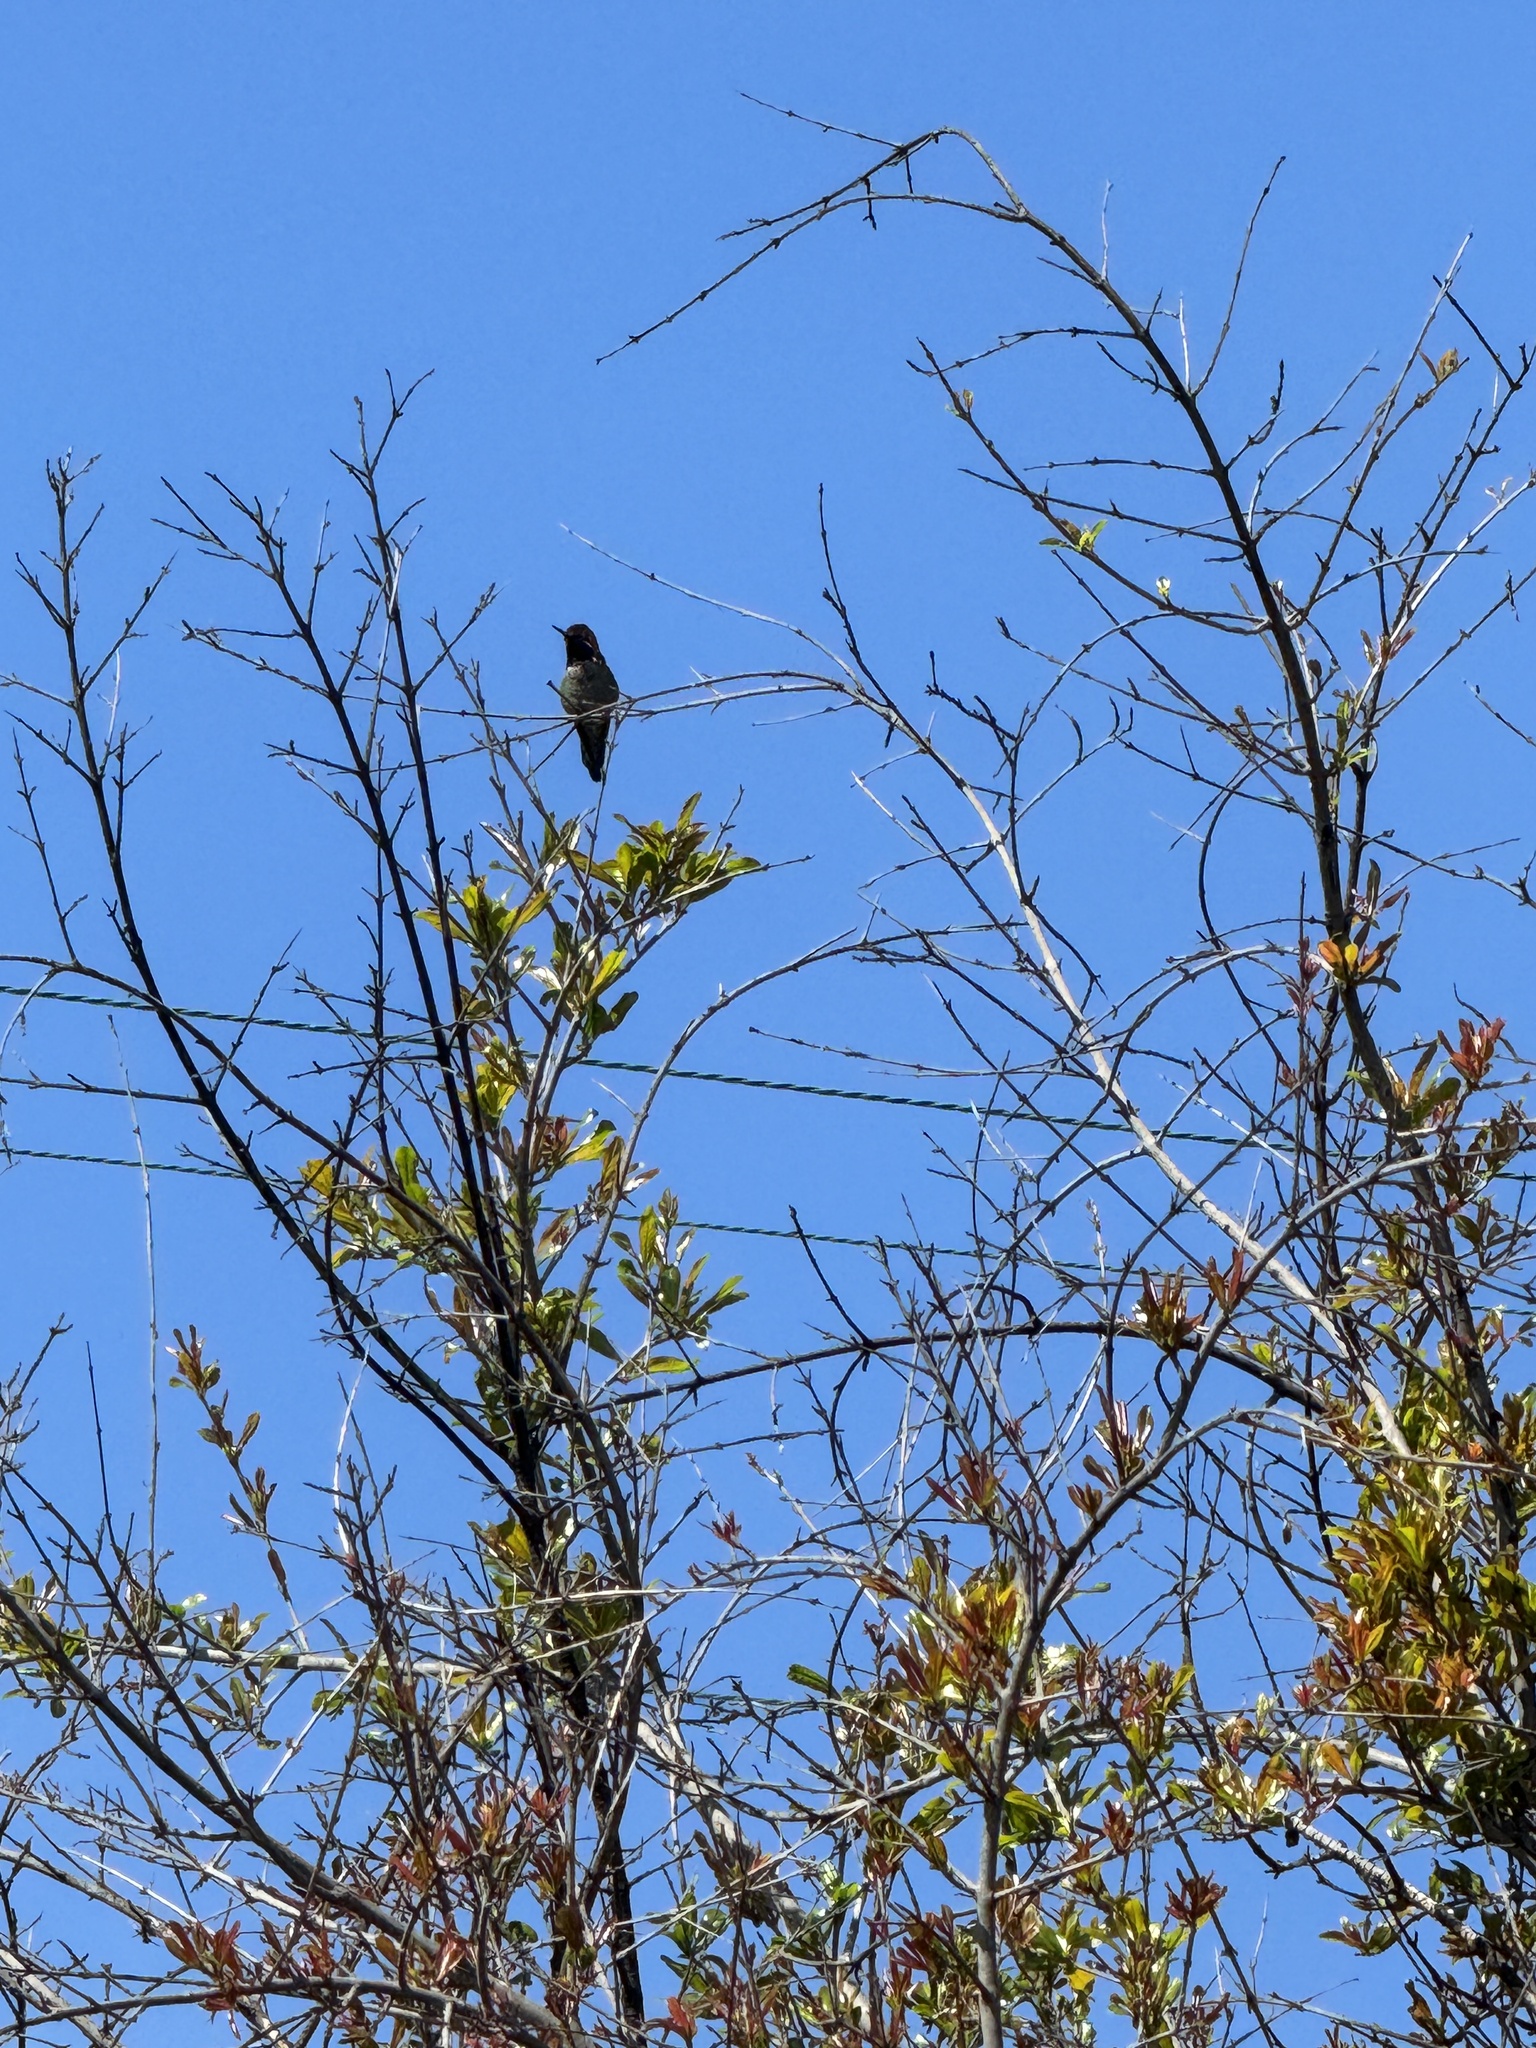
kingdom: Animalia
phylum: Chordata
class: Aves
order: Apodiformes
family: Trochilidae
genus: Calypte
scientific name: Calypte anna
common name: Anna's hummingbird
